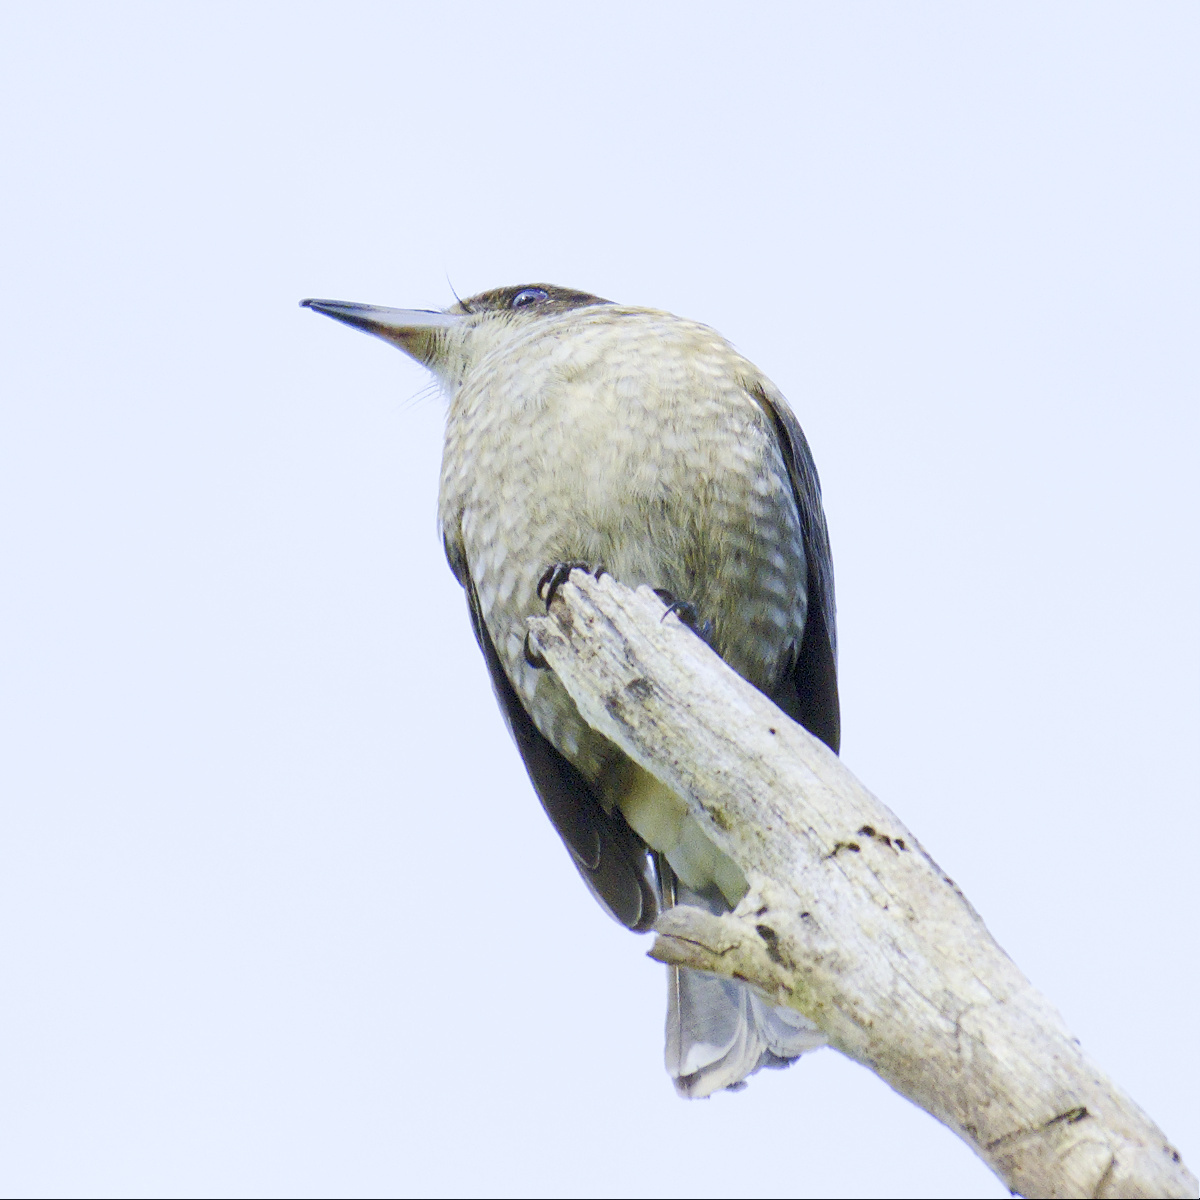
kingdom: Animalia
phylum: Chordata
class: Aves
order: Passeriformes
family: Cracticidae
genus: Cracticus
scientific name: Cracticus torquatus
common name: Grey butcherbird
